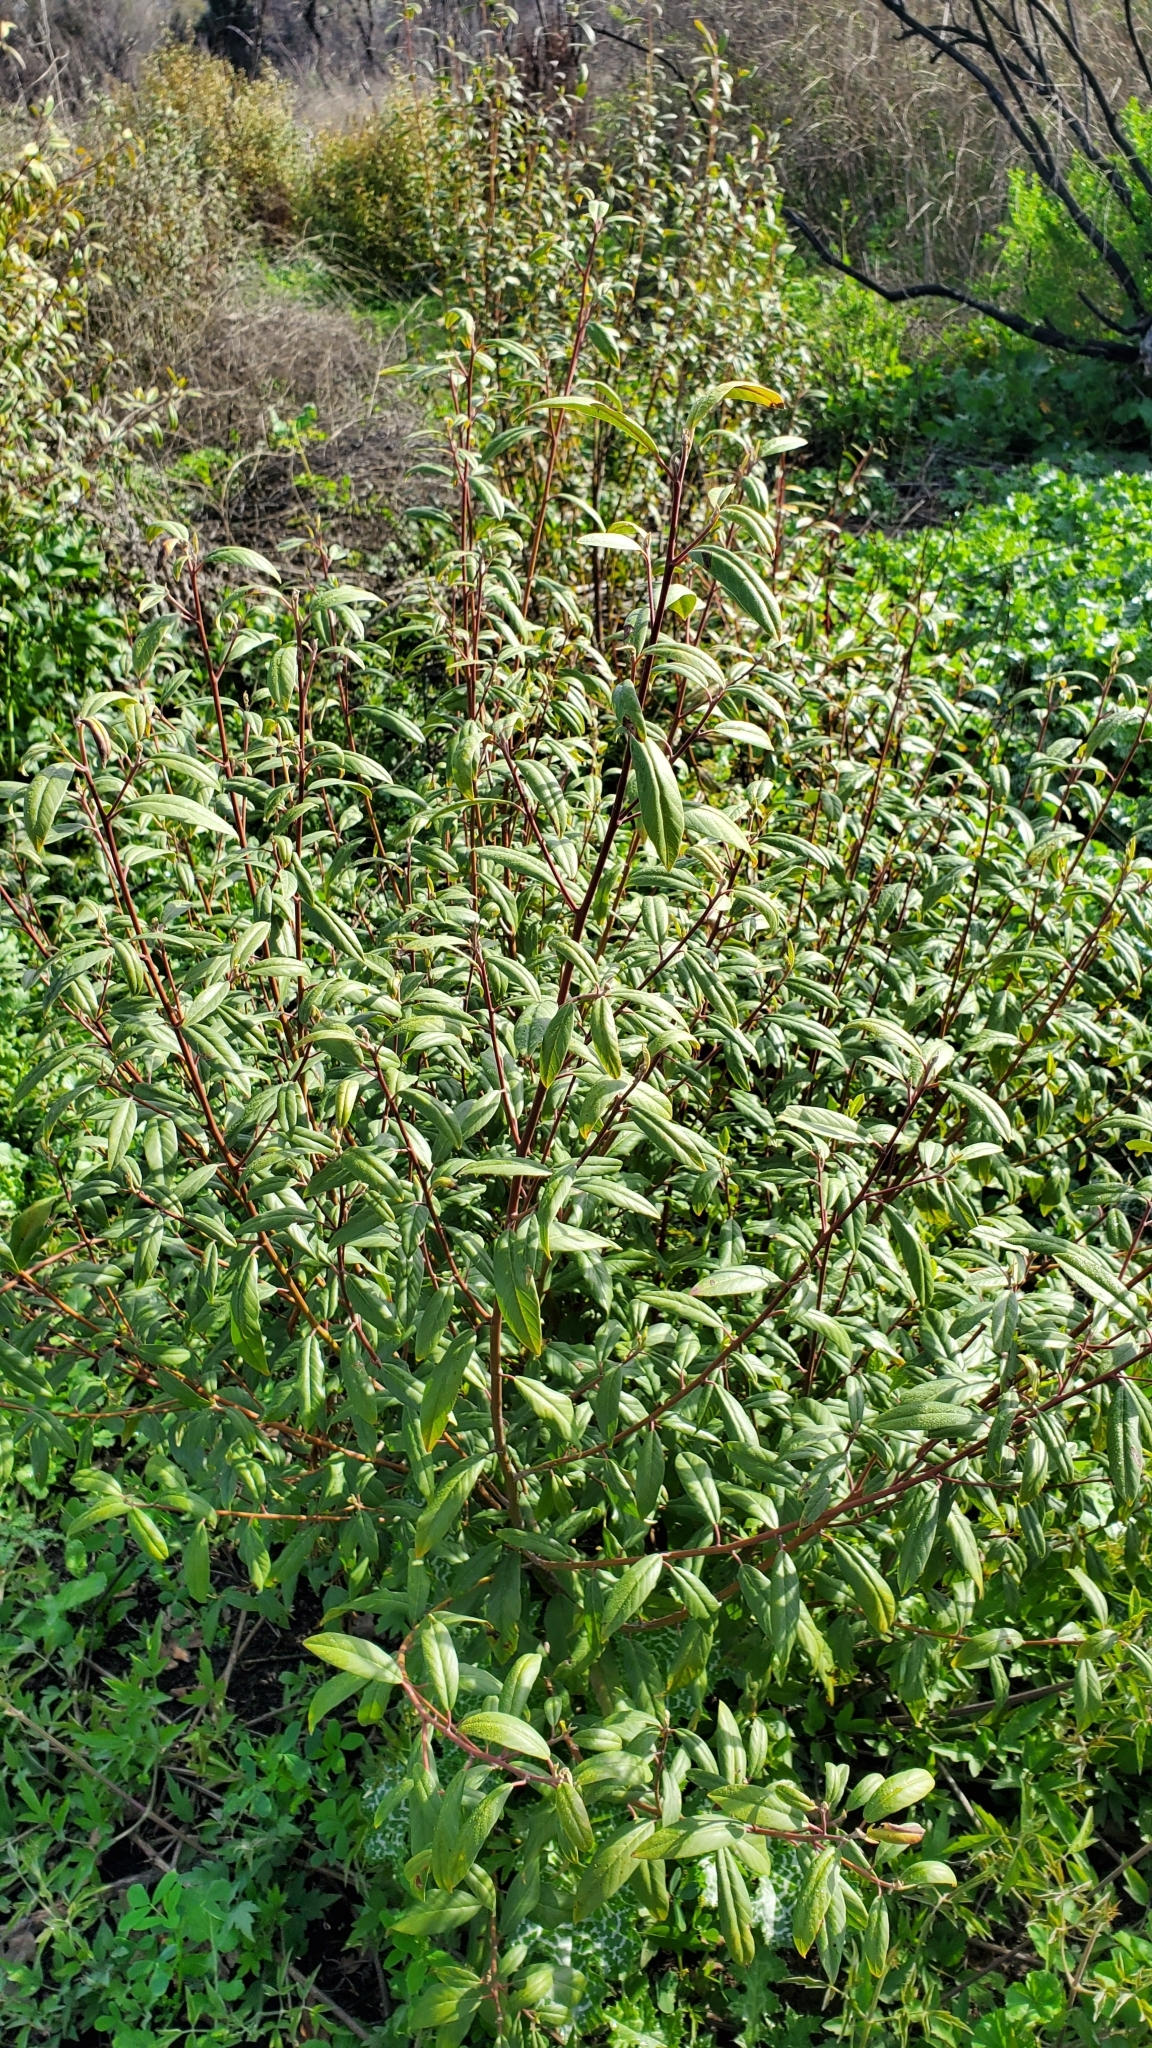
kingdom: Plantae
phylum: Tracheophyta
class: Magnoliopsida
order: Rosales
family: Rhamnaceae
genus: Frangula
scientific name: Frangula californica
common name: California buckthorn
